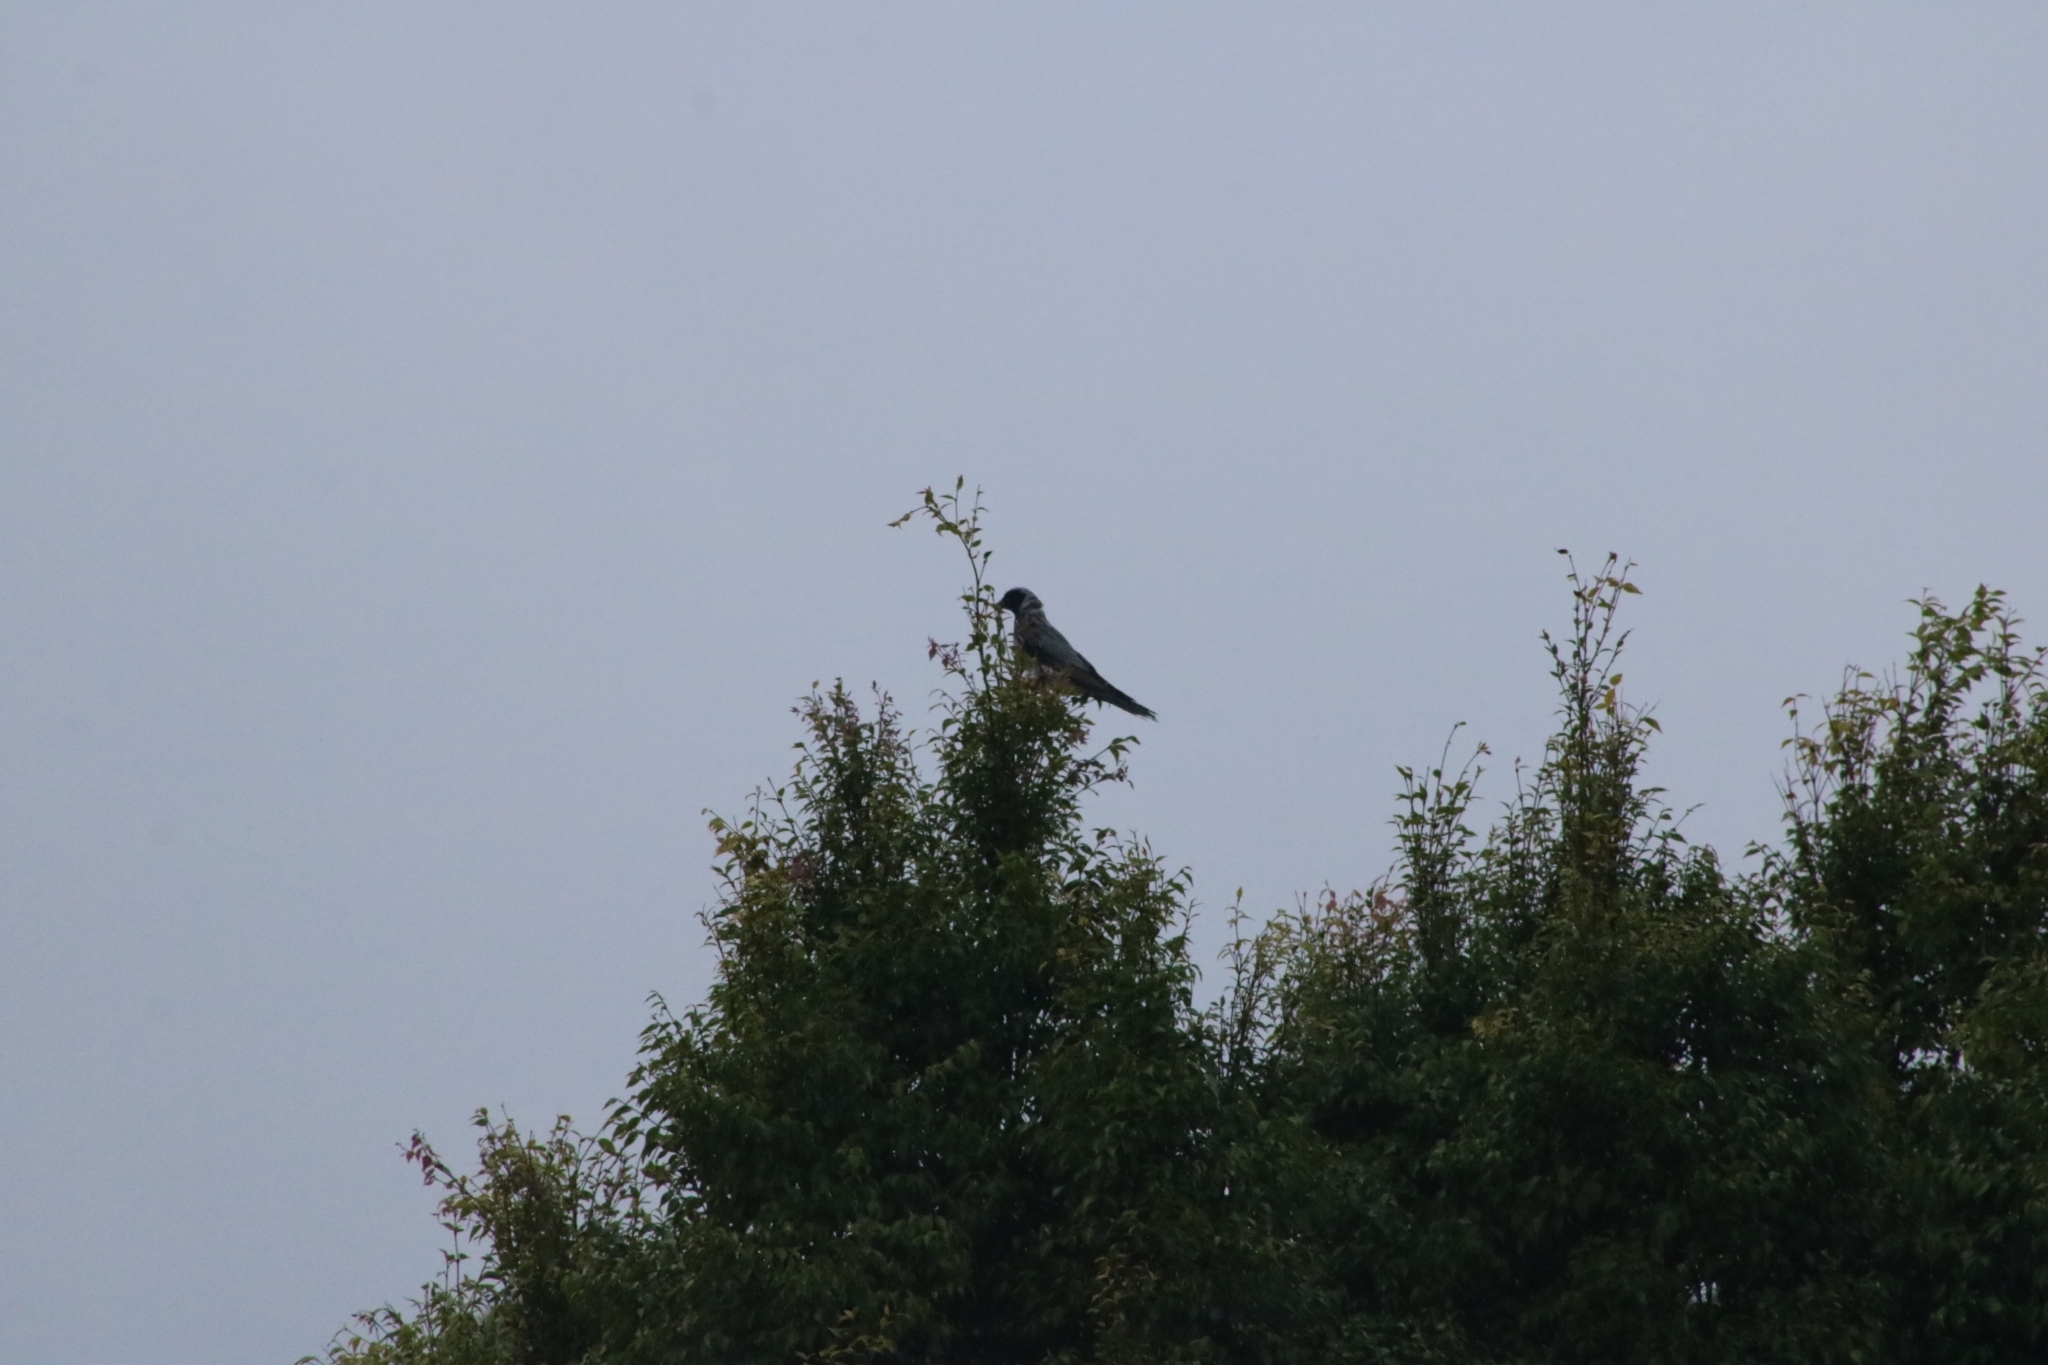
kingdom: Animalia
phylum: Chordata
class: Aves
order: Passeriformes
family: Campephagidae
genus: Coracina
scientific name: Coracina novaehollandiae
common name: Black-faced cuckooshrike
